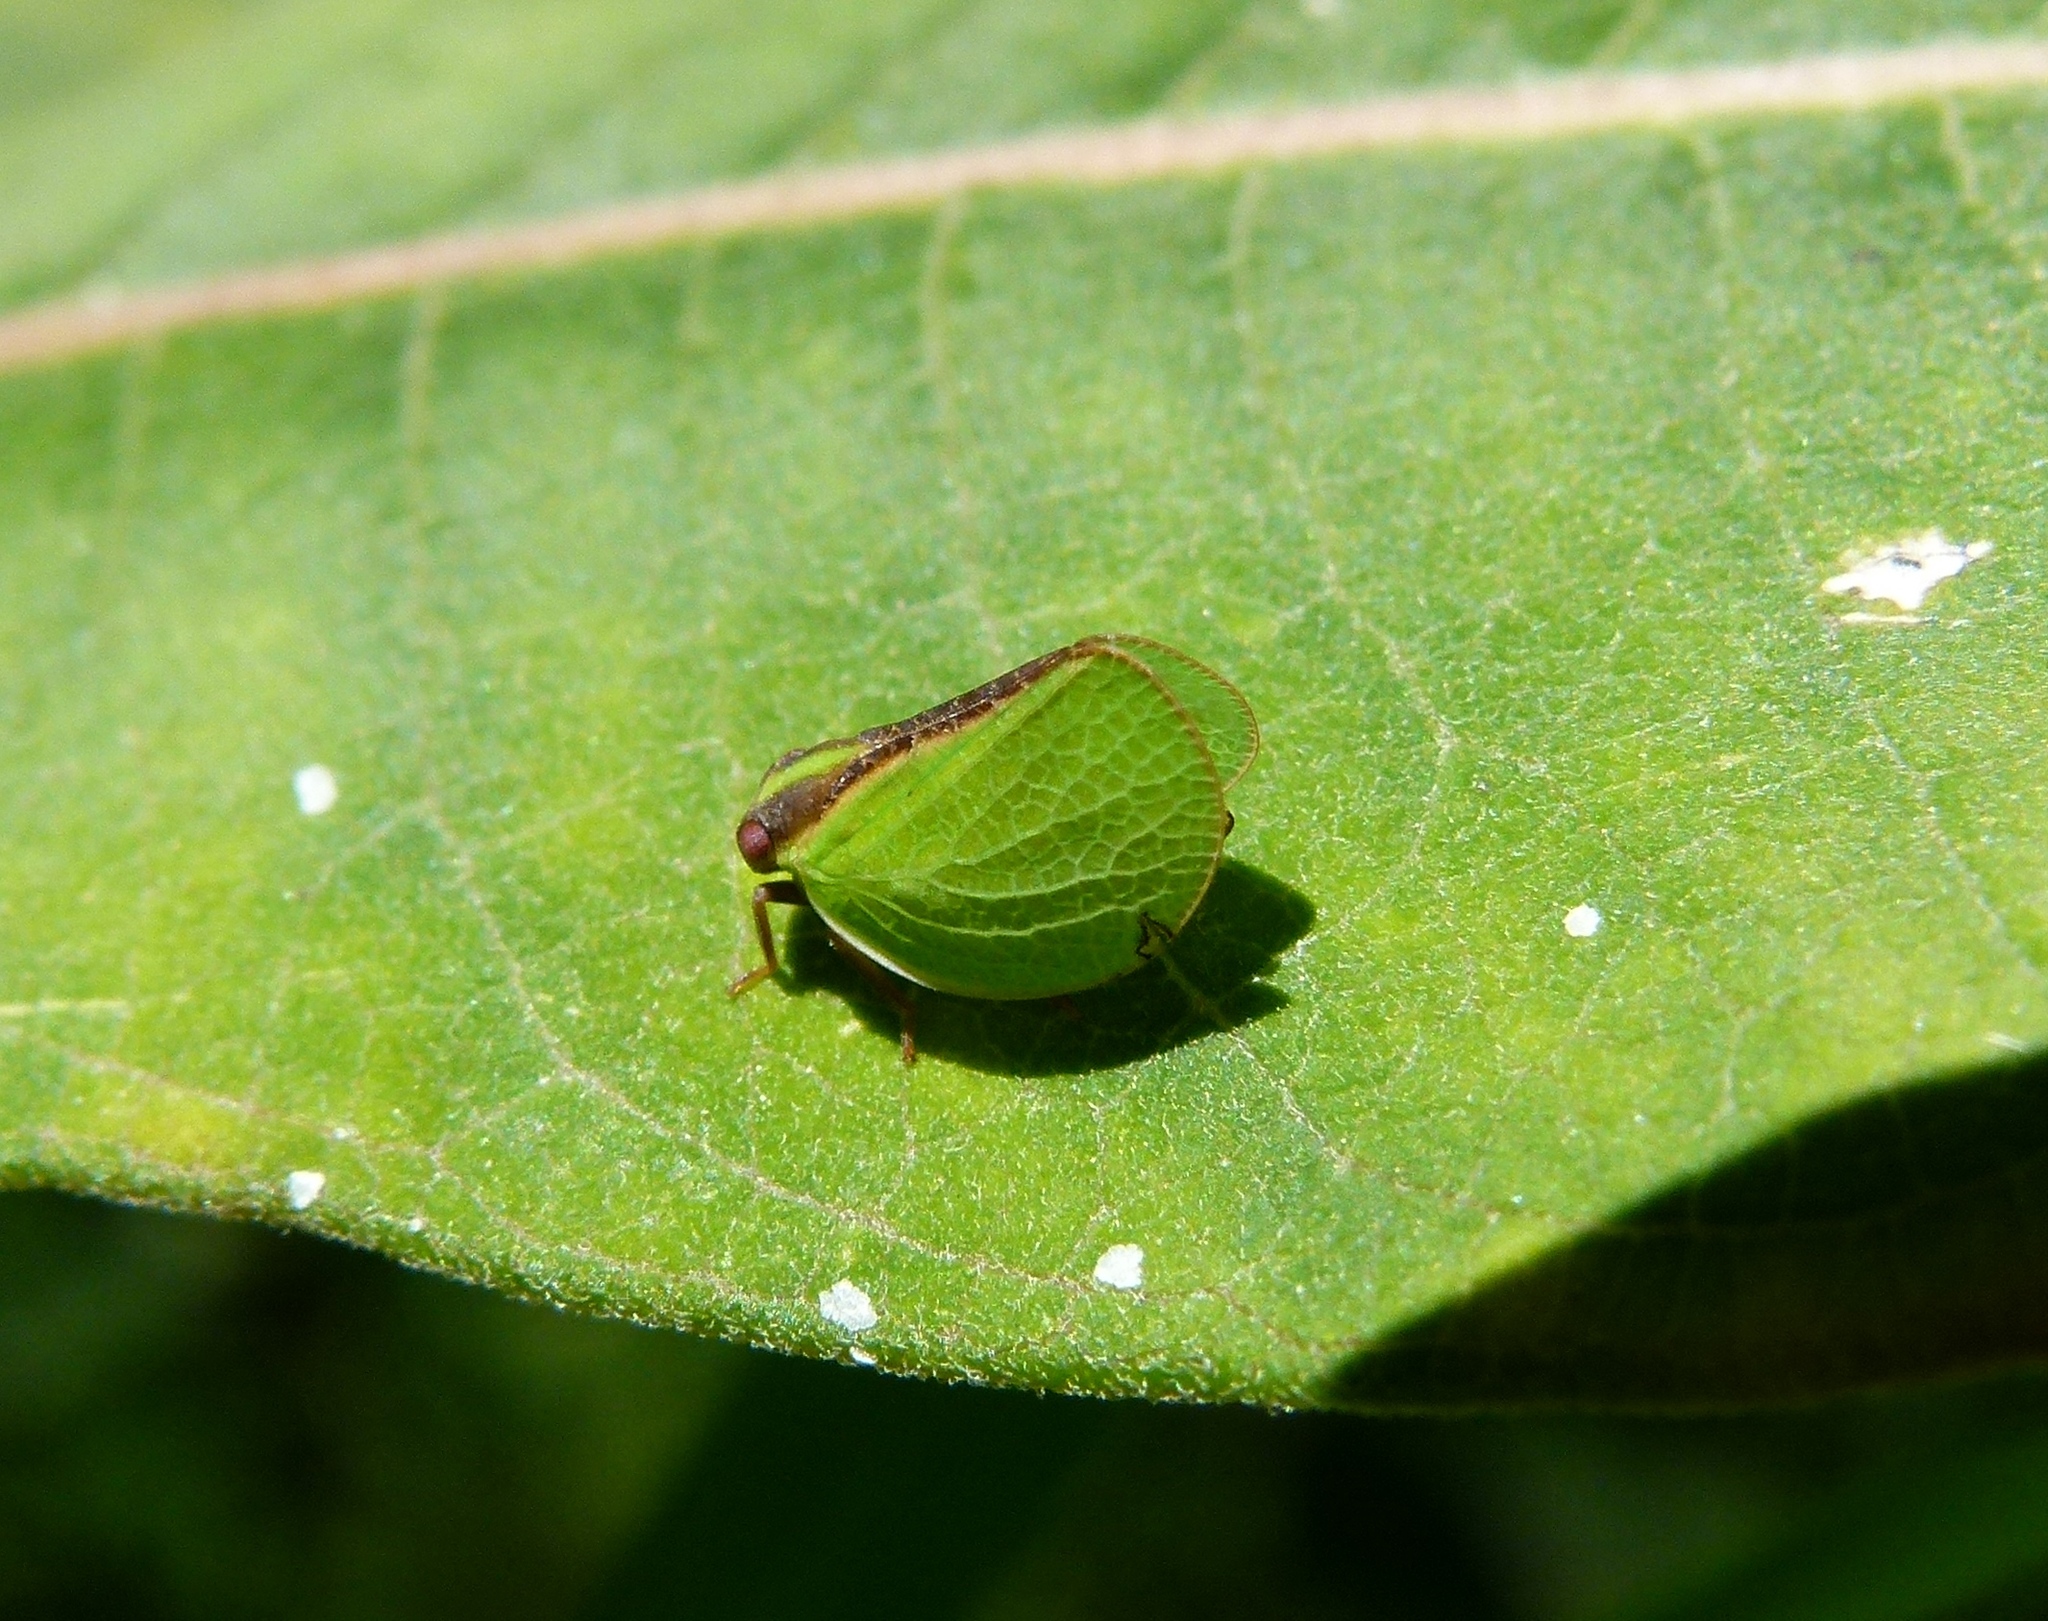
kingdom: Animalia
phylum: Arthropoda
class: Insecta
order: Hemiptera
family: Acanaloniidae
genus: Acanalonia
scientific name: Acanalonia bivittata
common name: Two-striped planthopper
